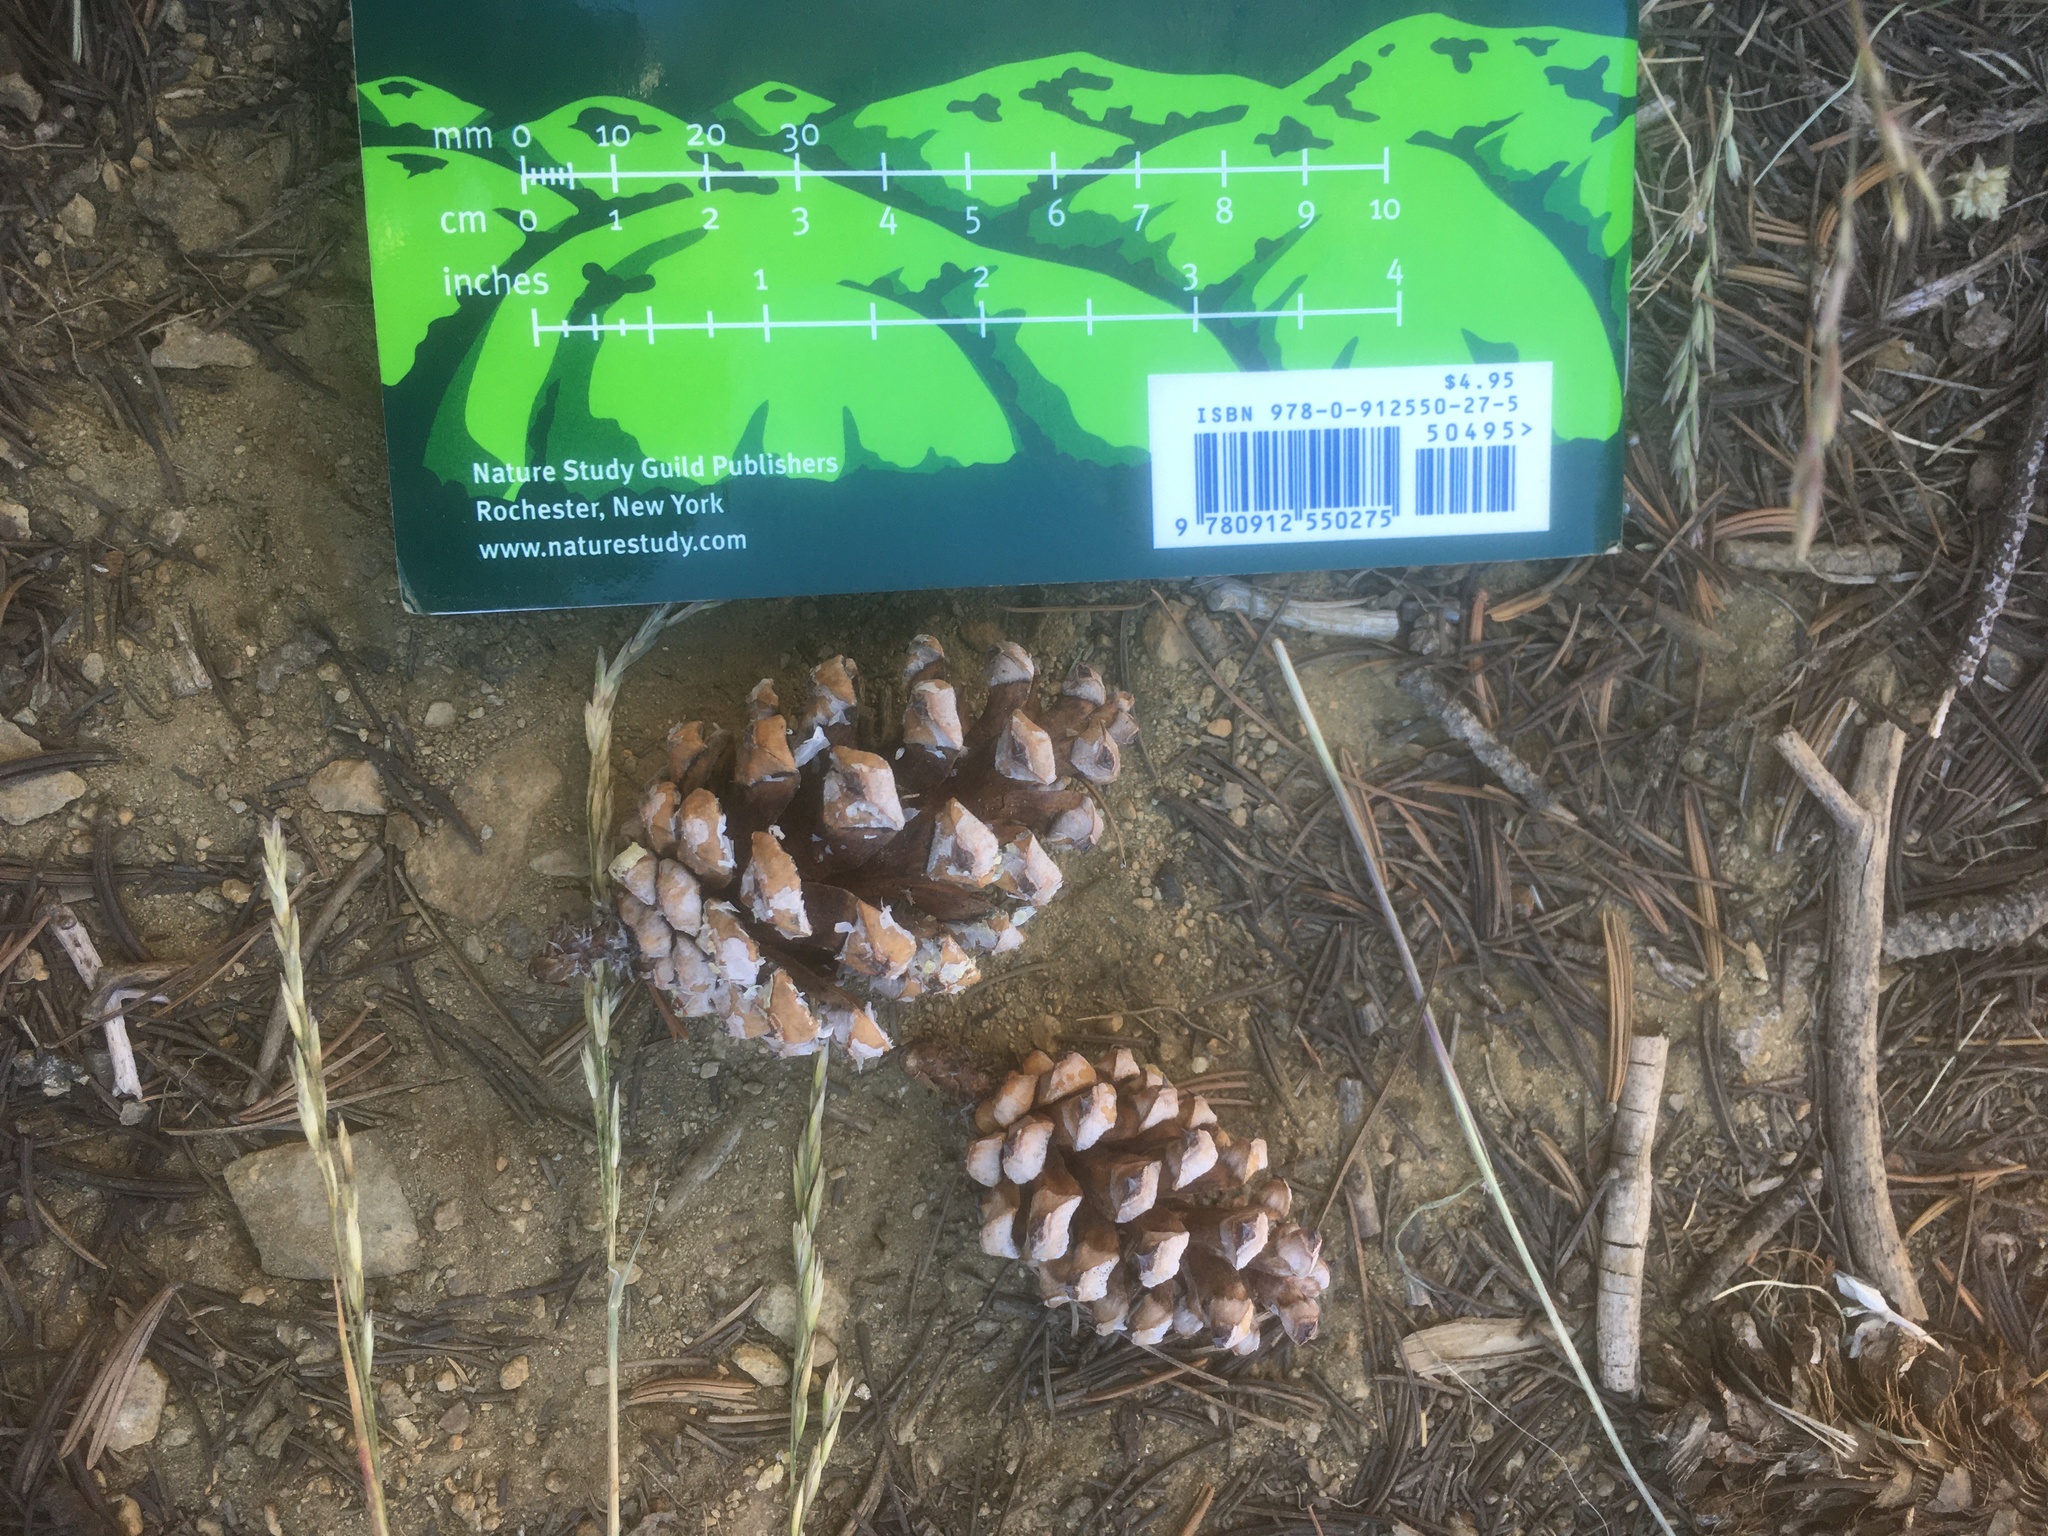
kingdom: Plantae
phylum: Tracheophyta
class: Pinopsida
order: Pinales
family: Pinaceae
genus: Pinus
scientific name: Pinus balfouriana
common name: Foxtail pine
